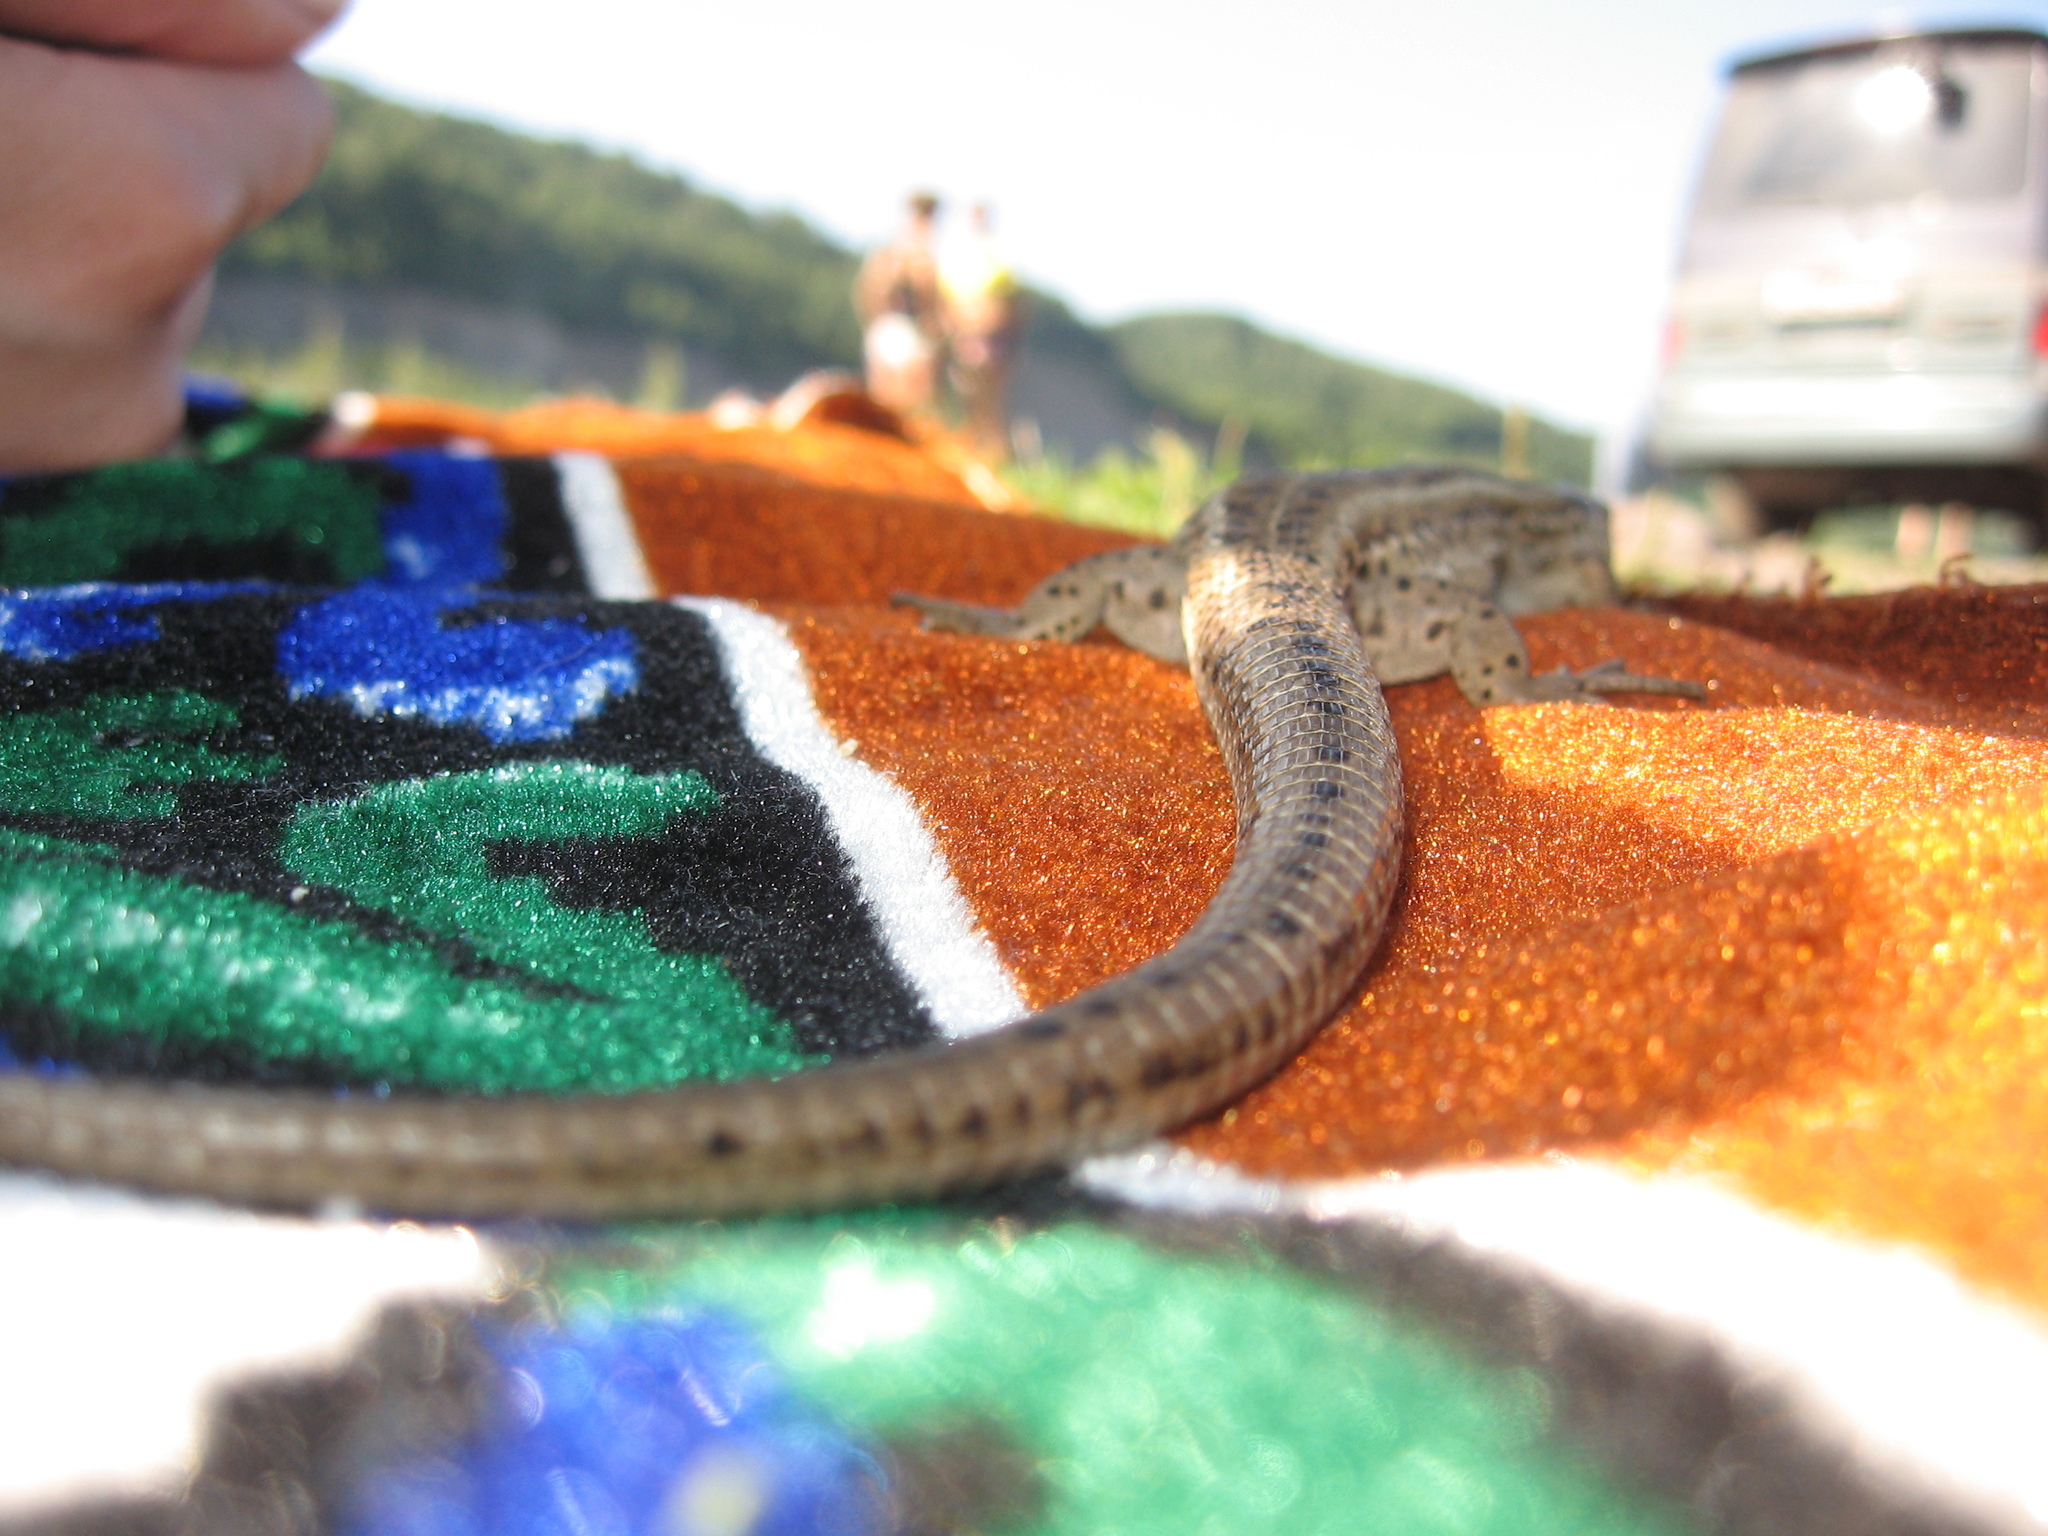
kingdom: Animalia
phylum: Chordata
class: Squamata
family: Lacertidae
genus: Lacerta
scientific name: Lacerta agilis
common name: Sand lizard
